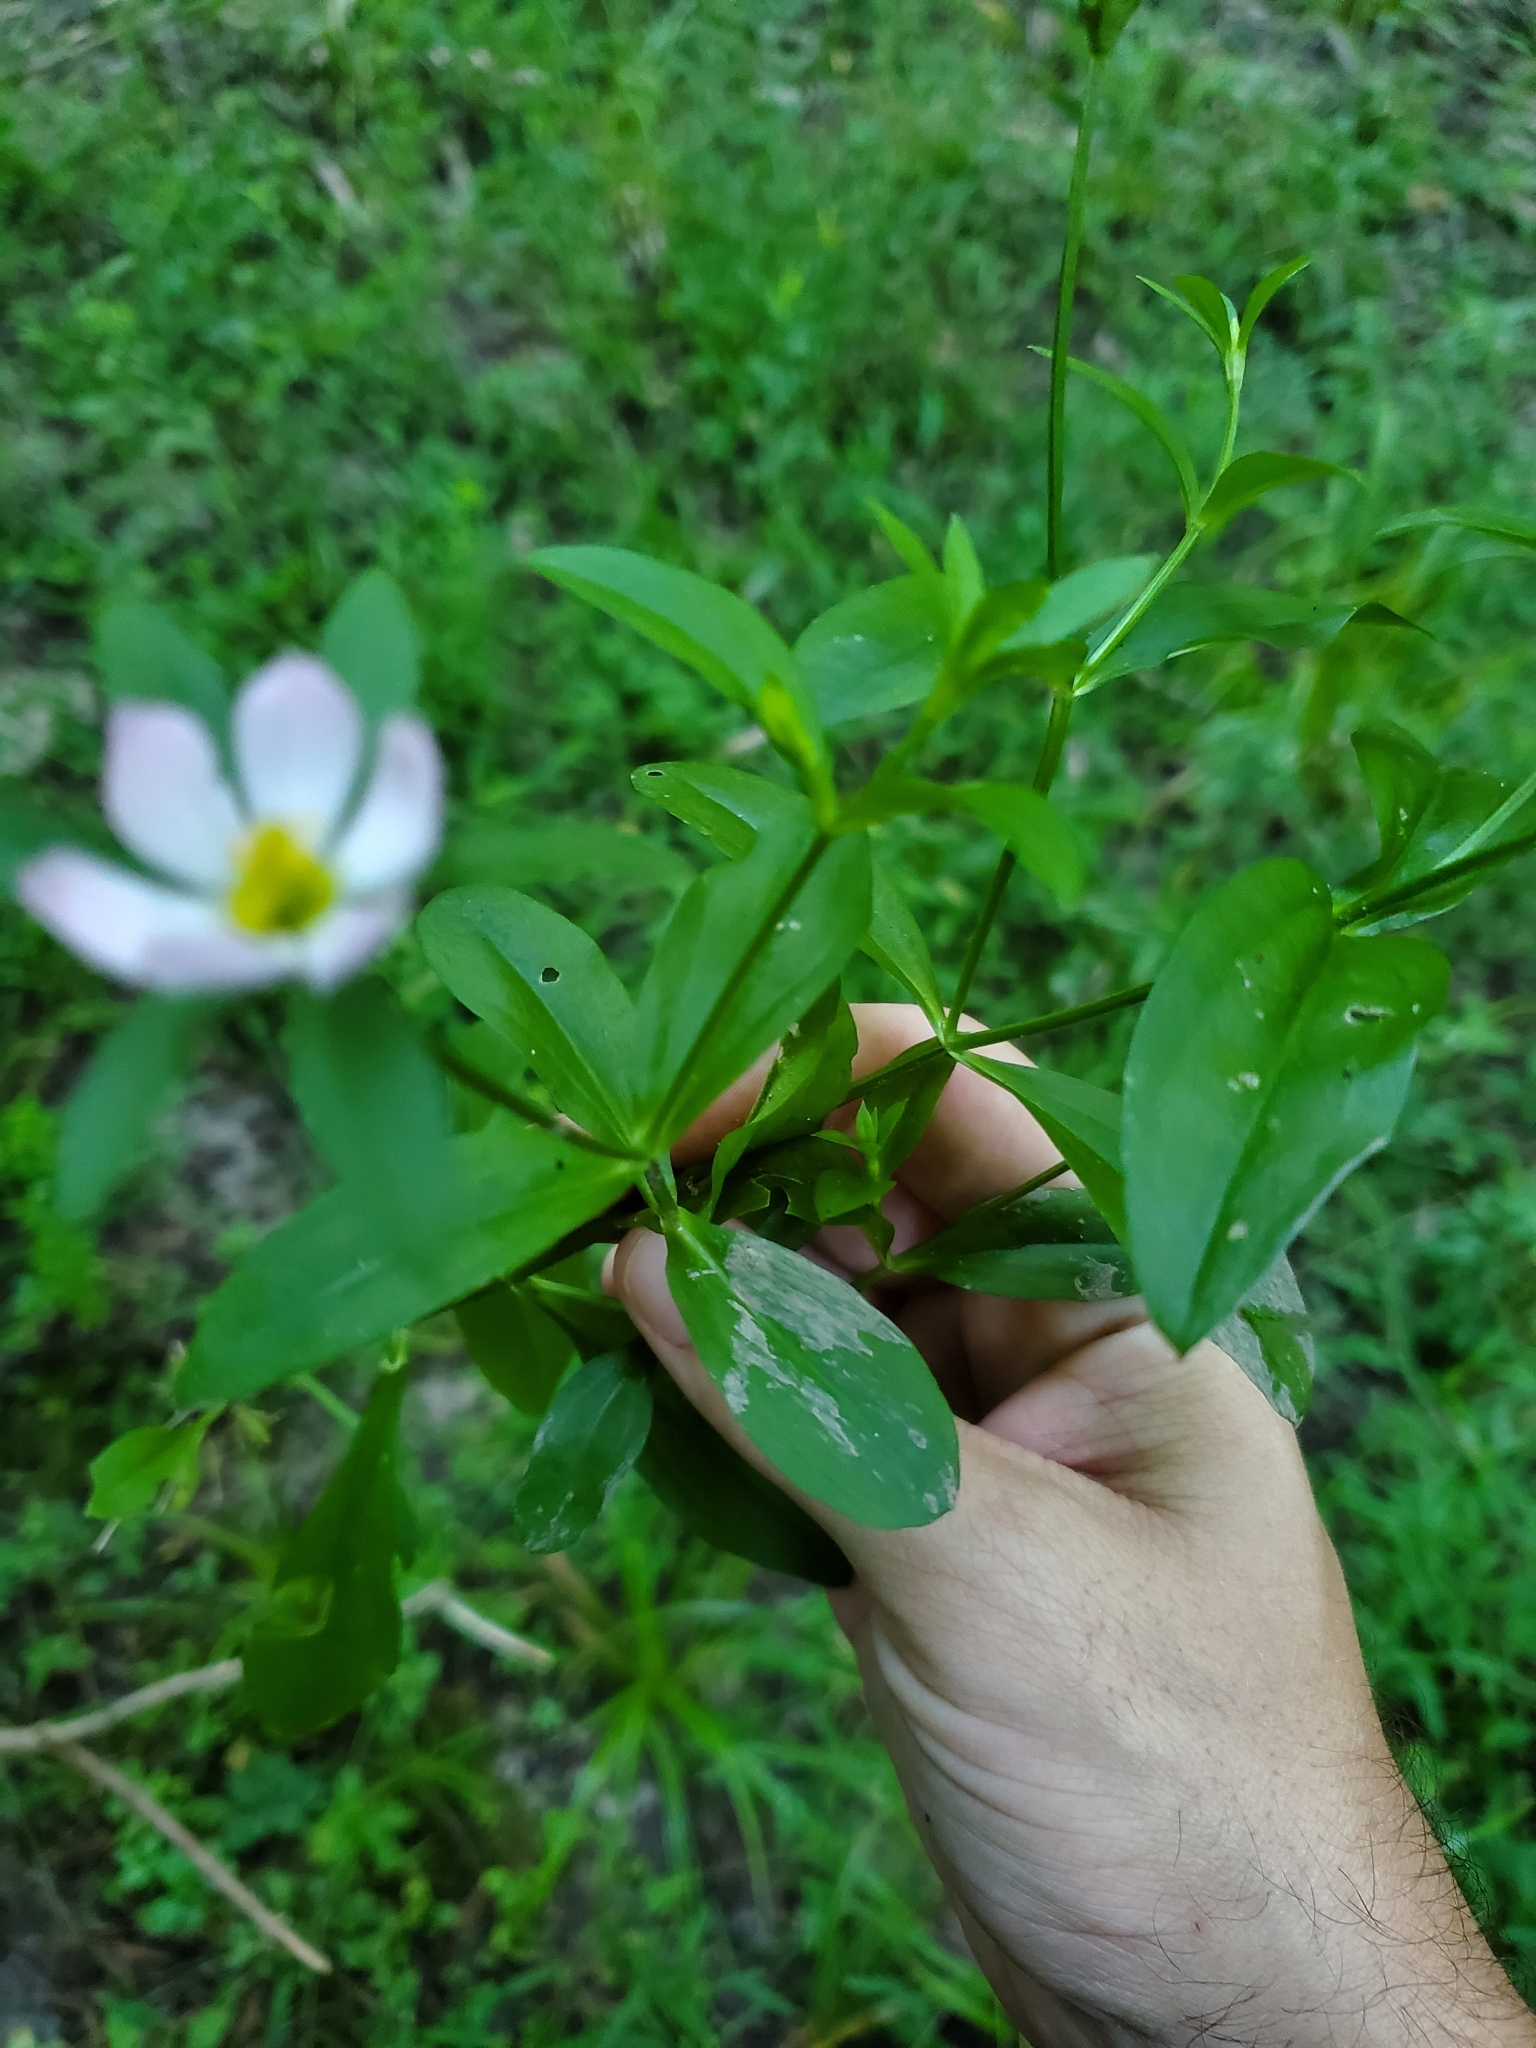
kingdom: Plantae
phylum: Tracheophyta
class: Magnoliopsida
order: Gentianales
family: Gentianaceae
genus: Sabatia
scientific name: Sabatia calycina
